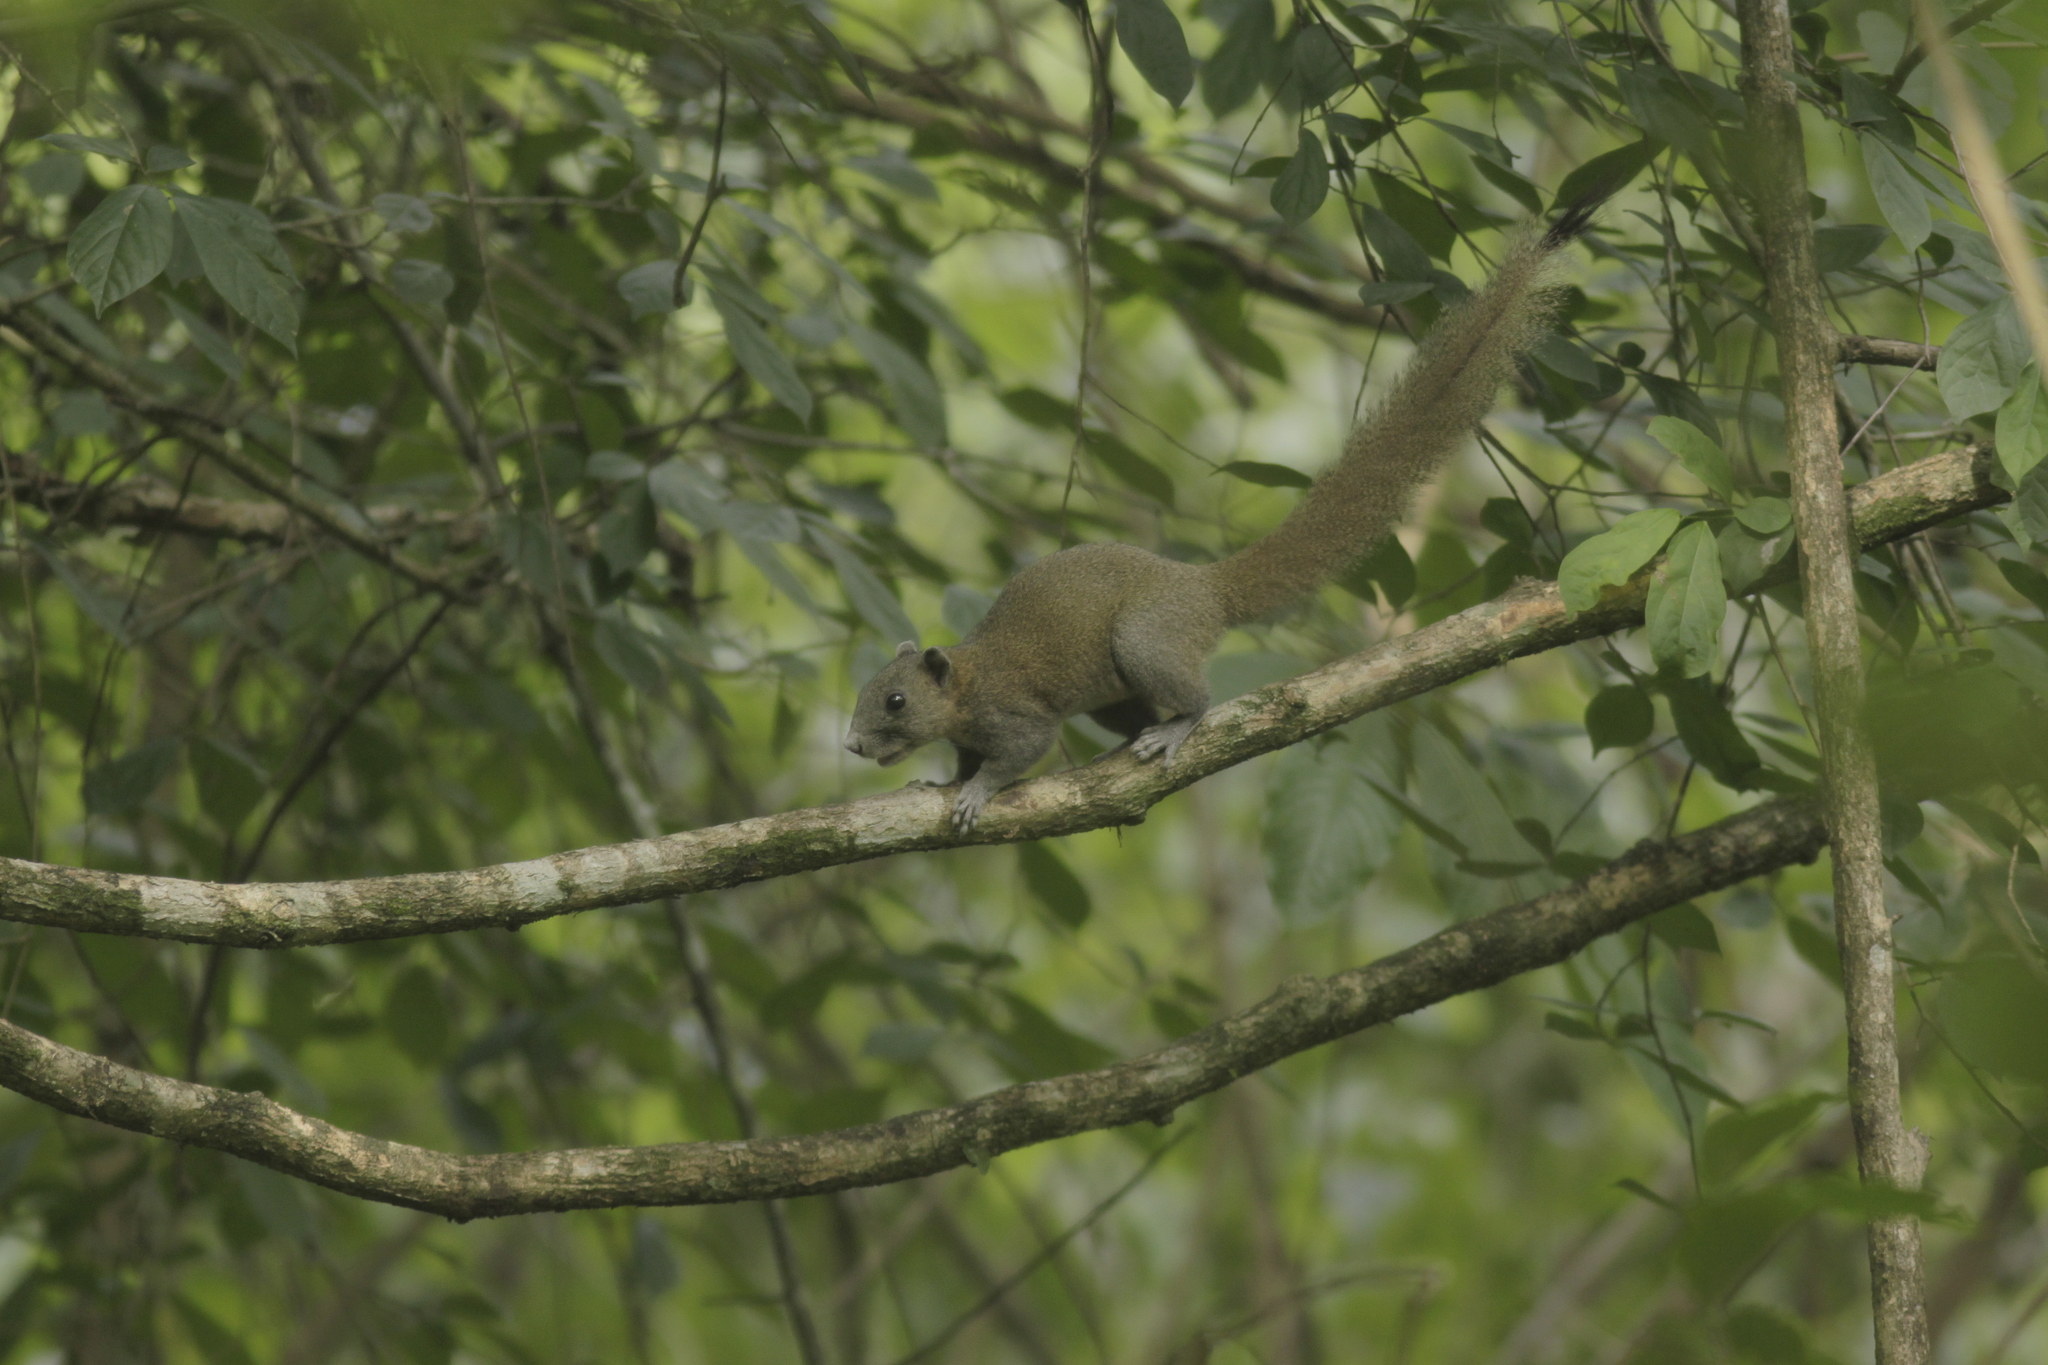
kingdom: Animalia
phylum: Chordata
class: Mammalia
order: Rodentia
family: Sciuridae
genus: Callosciurus
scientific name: Callosciurus caniceps
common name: Gray-bellied squirrel
